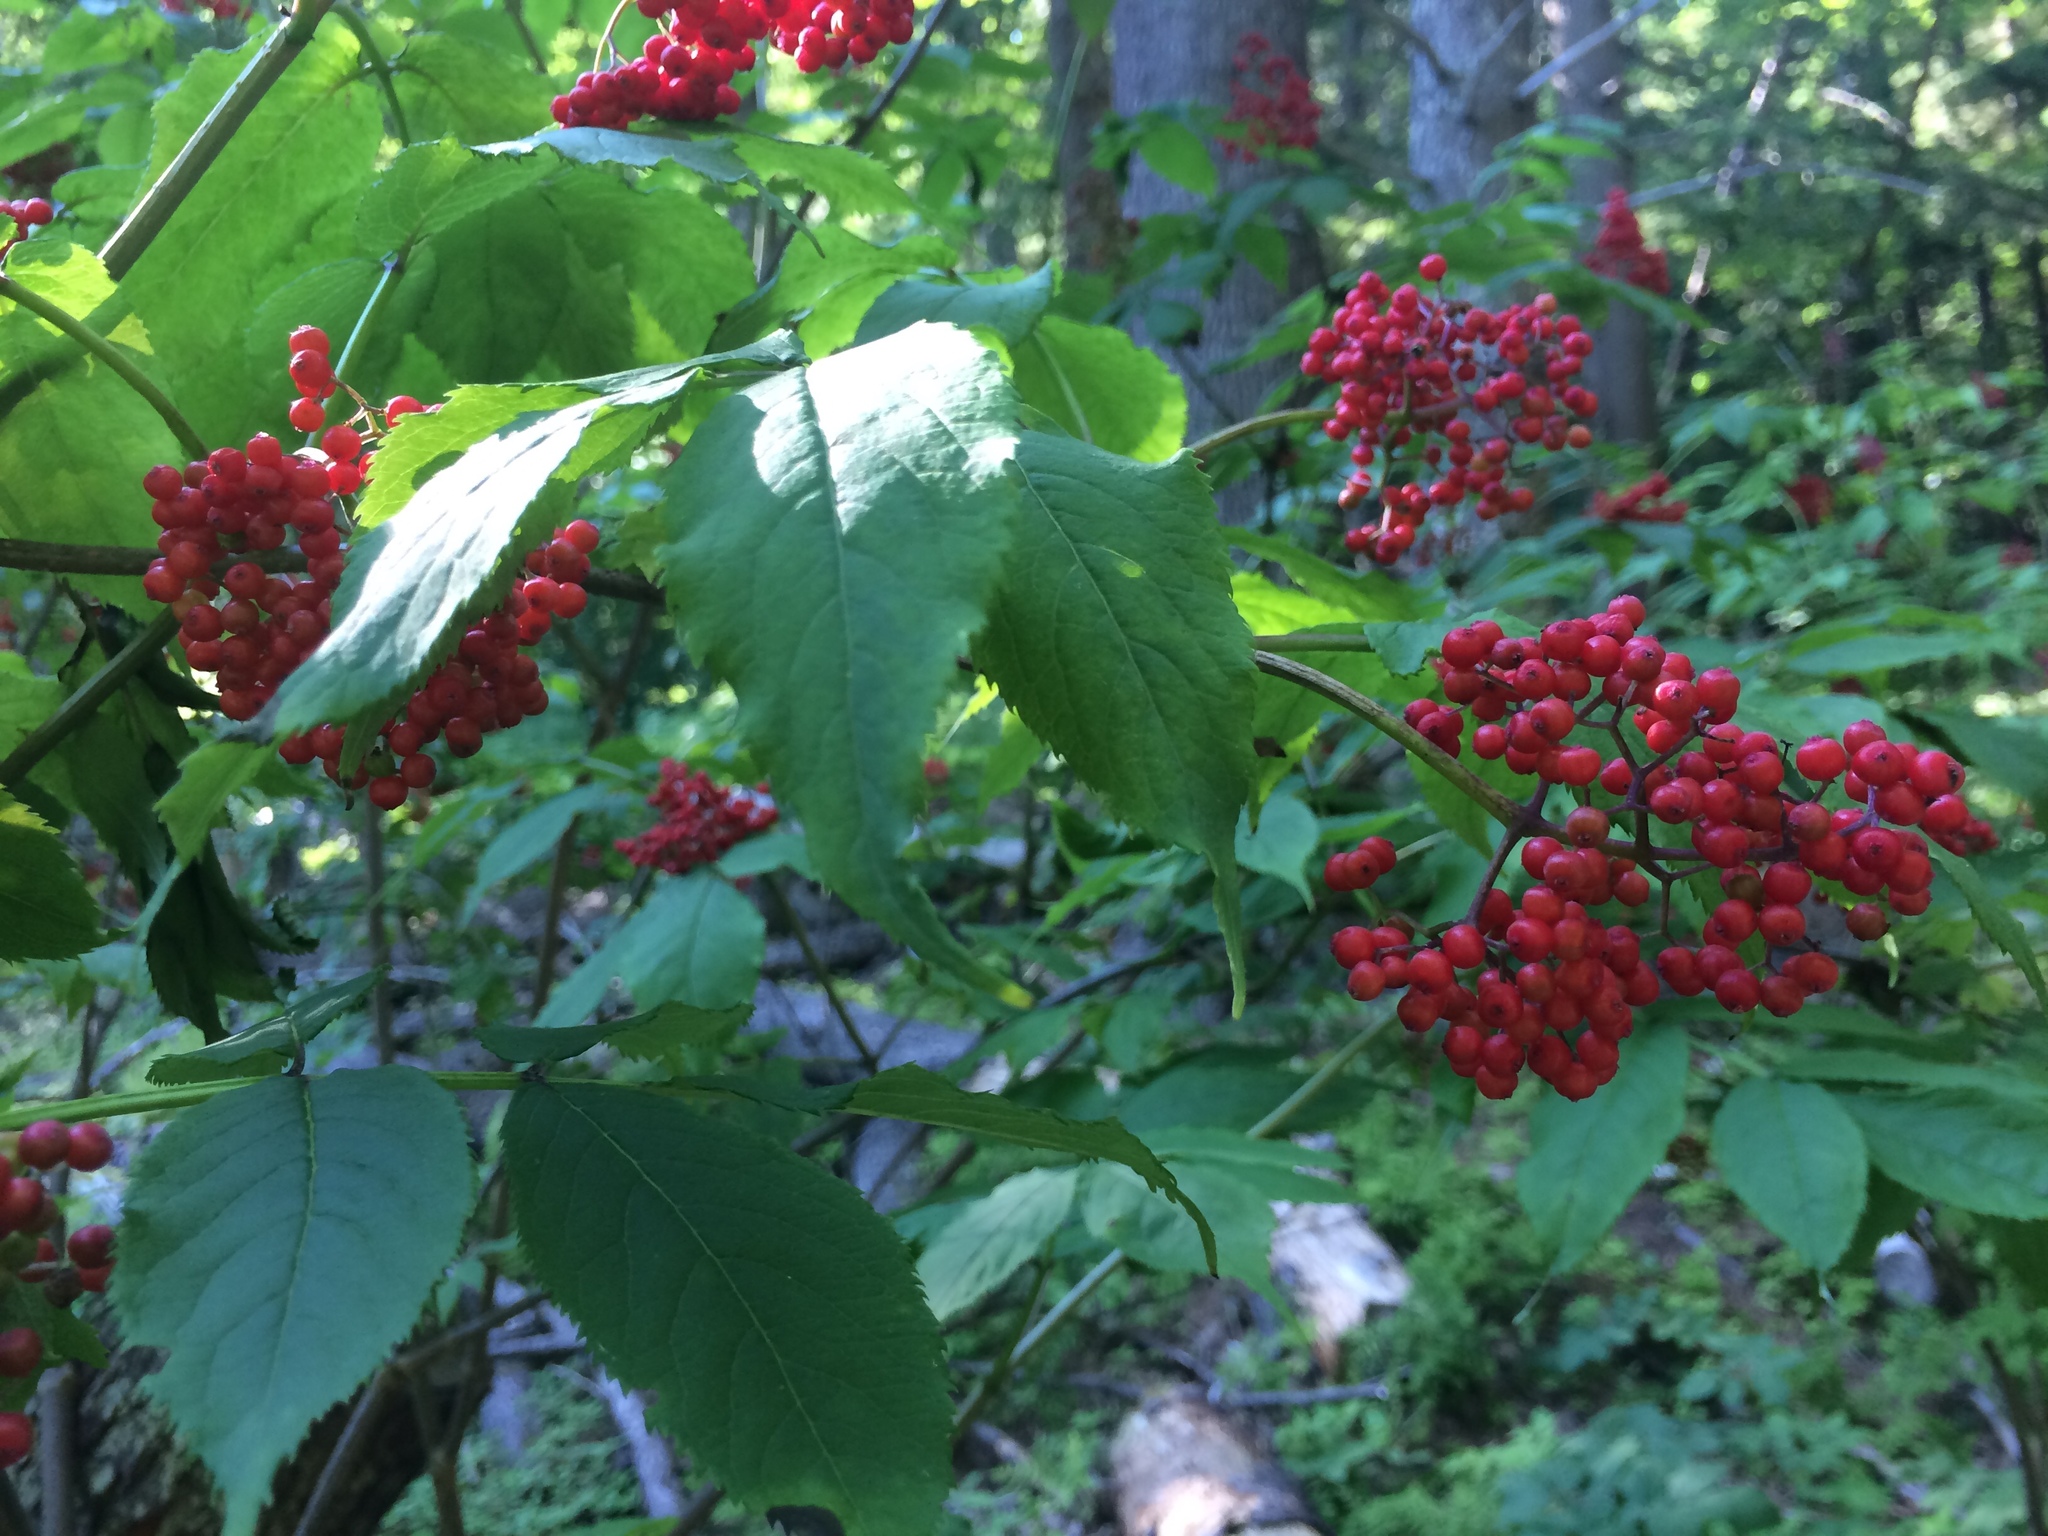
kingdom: Plantae
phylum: Tracheophyta
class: Magnoliopsida
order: Dipsacales
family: Viburnaceae
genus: Sambucus
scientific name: Sambucus racemosa
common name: Red-berried elder
